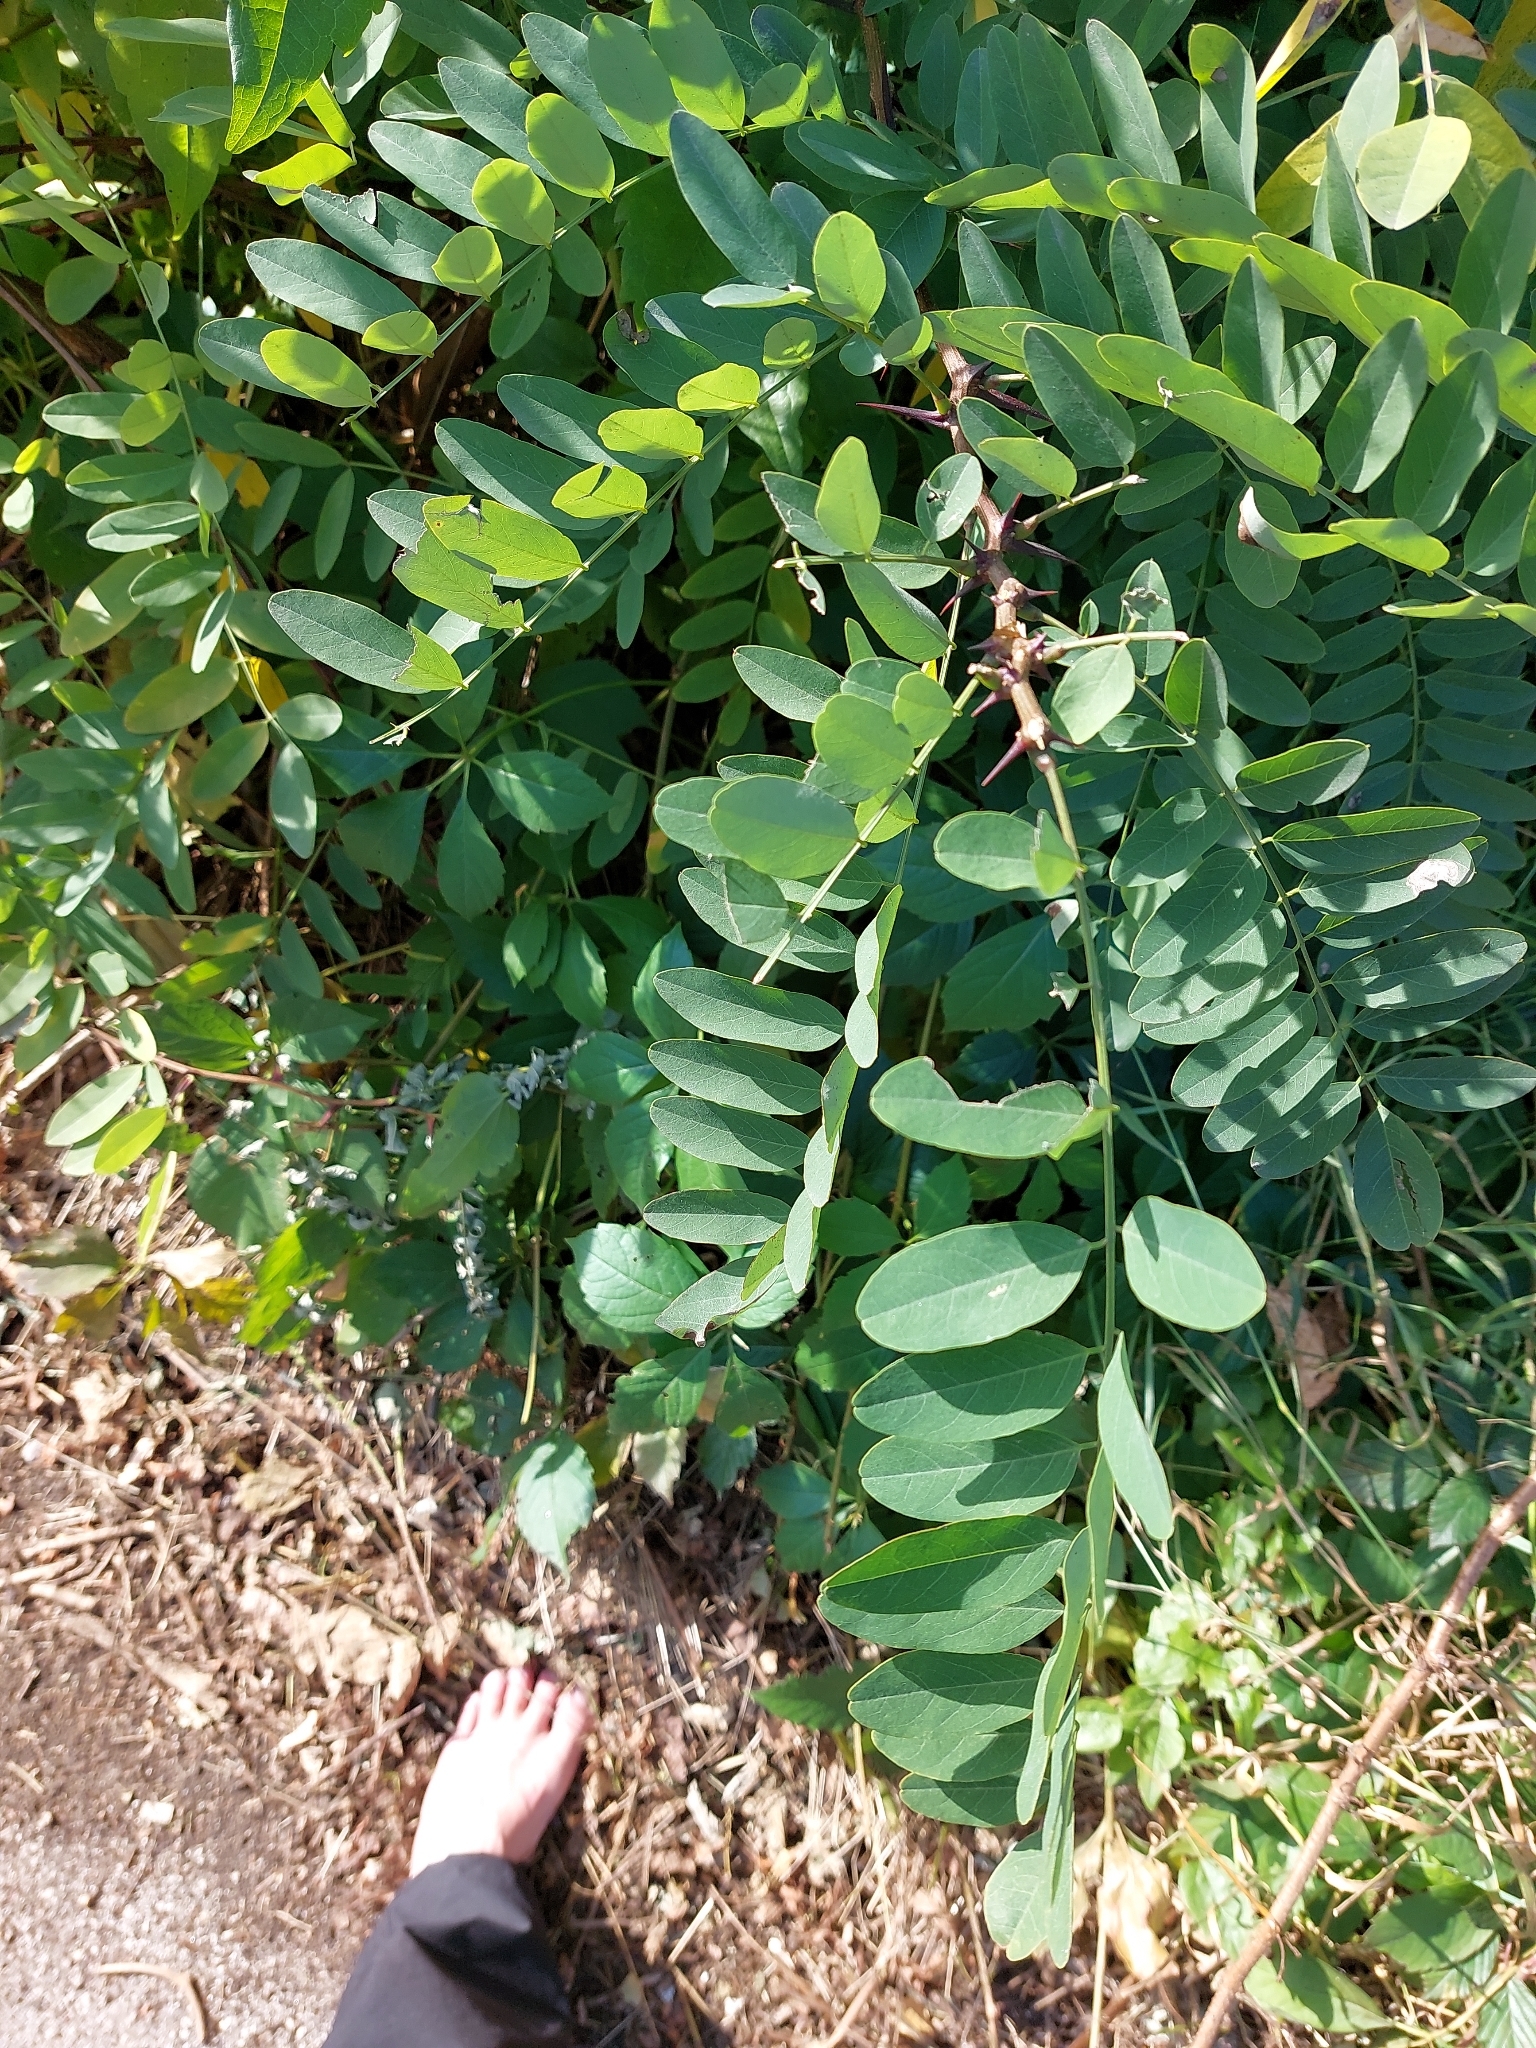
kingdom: Plantae
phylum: Tracheophyta
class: Magnoliopsida
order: Fabales
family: Fabaceae
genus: Robinia
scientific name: Robinia pseudoacacia
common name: Black locust
